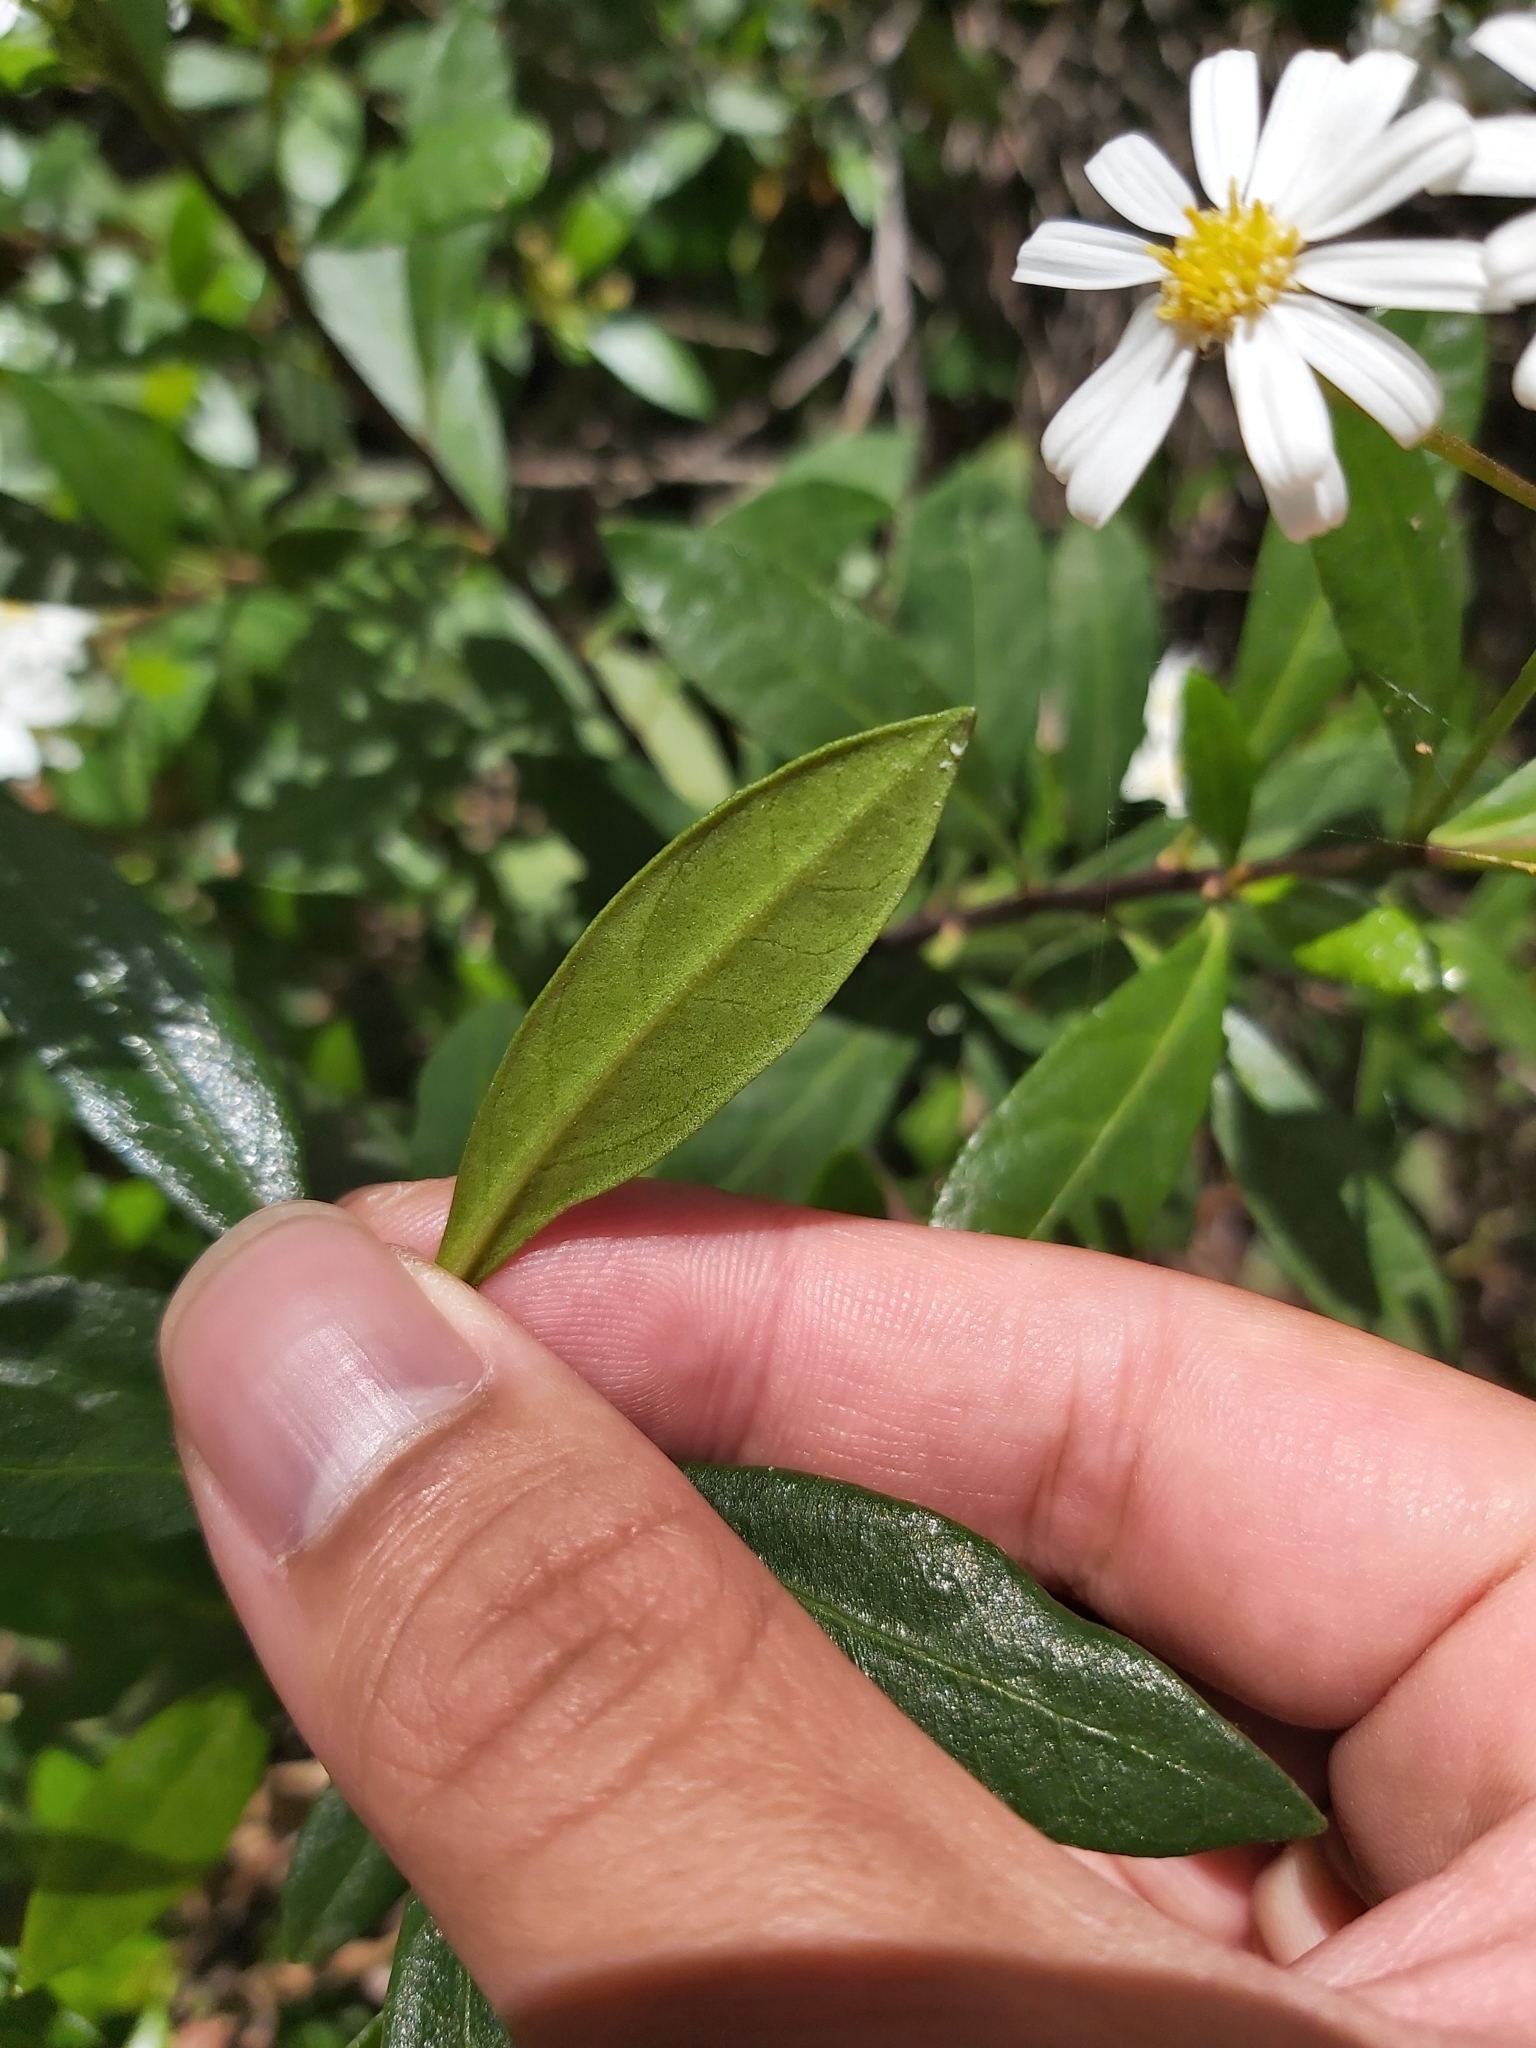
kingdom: Plantae
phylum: Tracheophyta
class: Magnoliopsida
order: Asterales
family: Asteraceae
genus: Phaseolaster
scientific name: Phaseolaster elliptica
